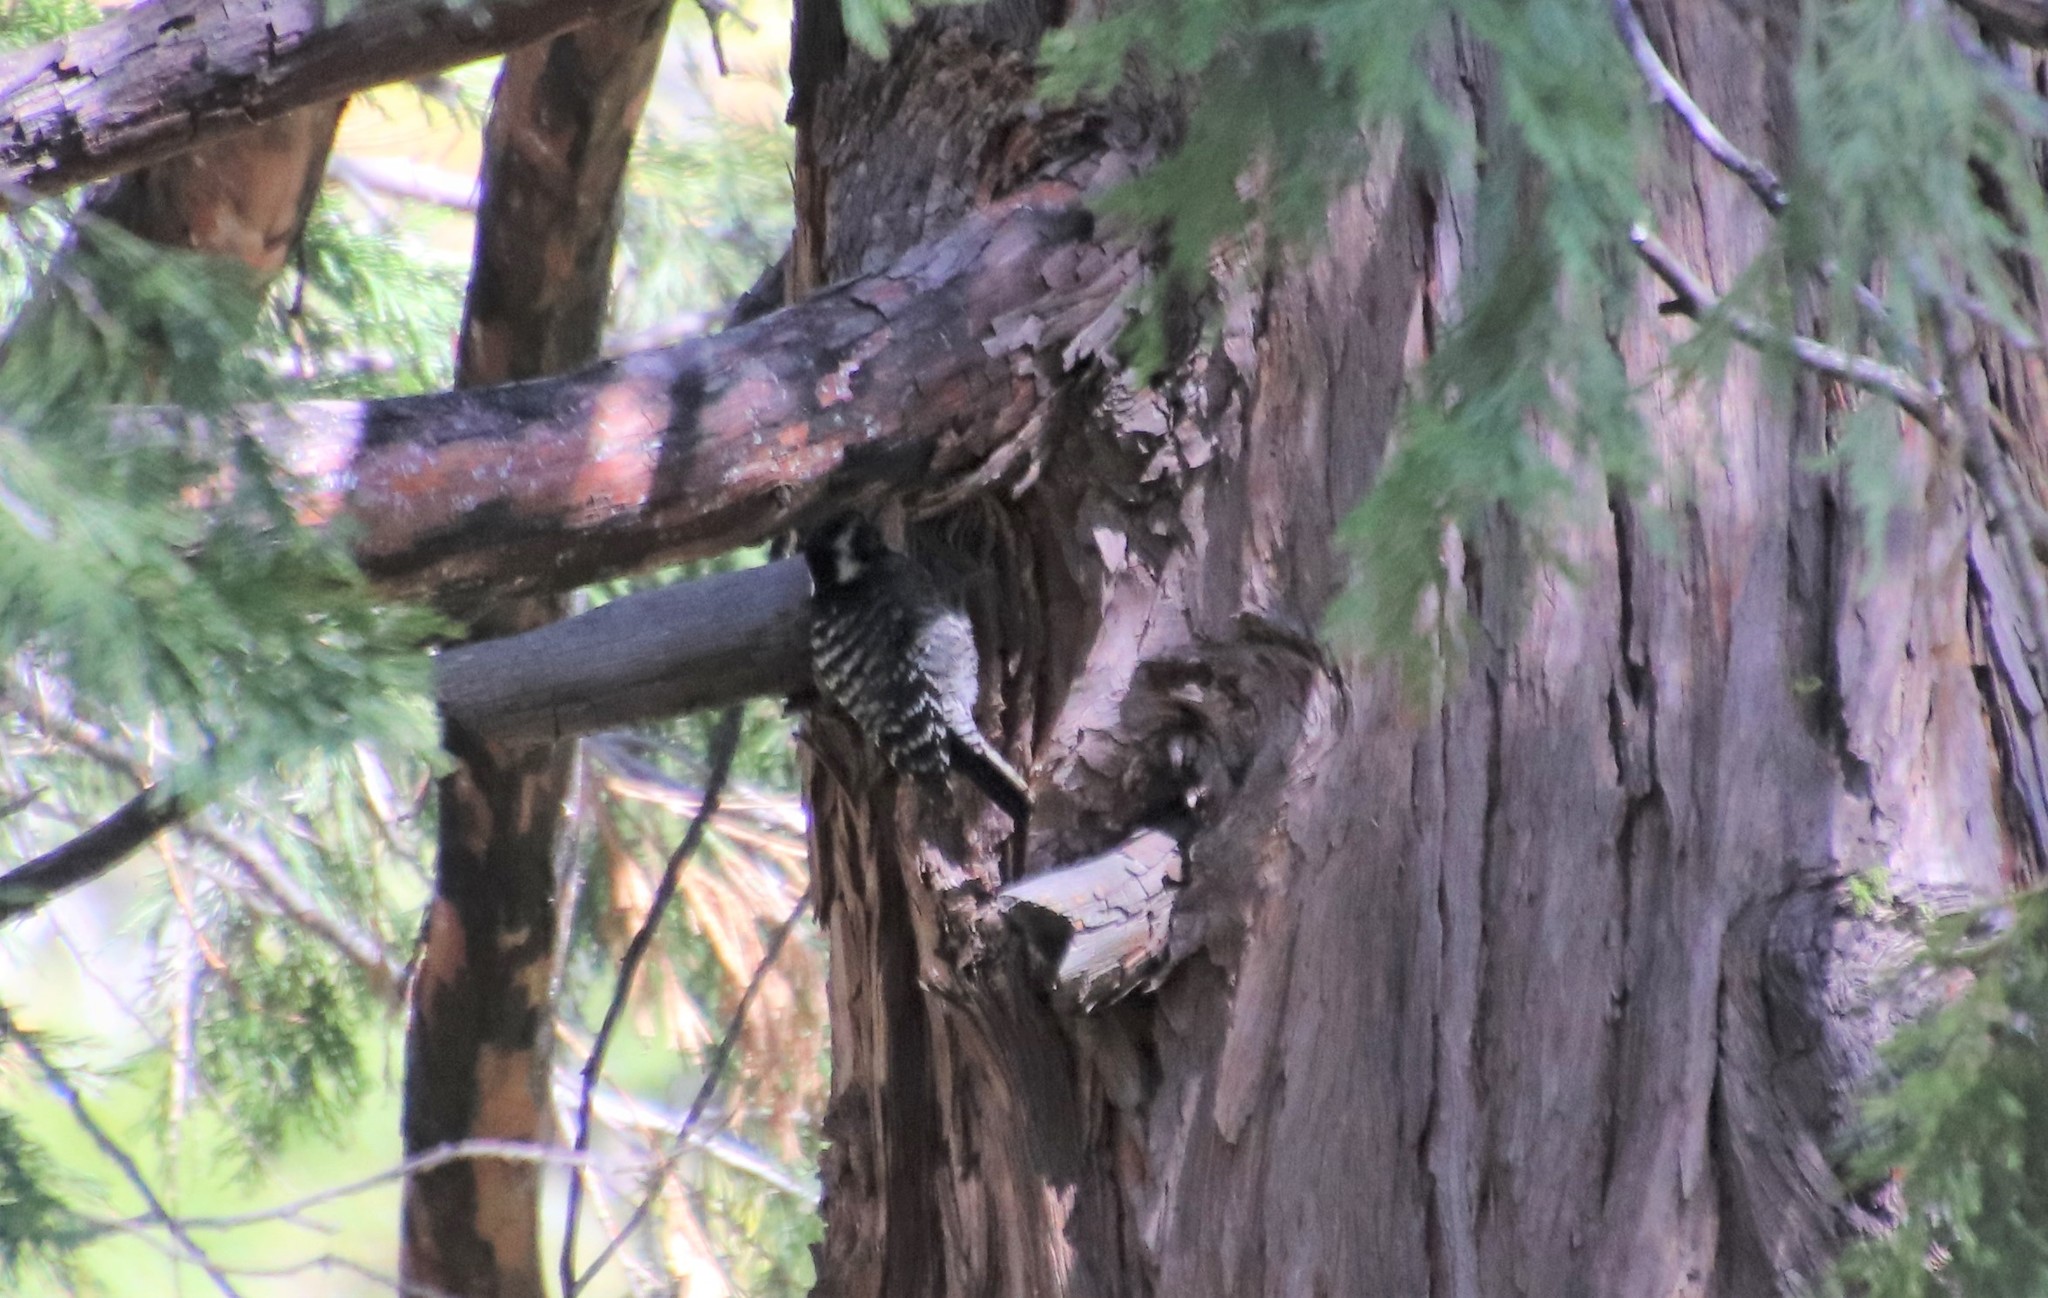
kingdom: Animalia
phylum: Chordata
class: Aves
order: Piciformes
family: Picidae
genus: Dryobates
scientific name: Dryobates nuttallii
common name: Nuttall's woodpecker
